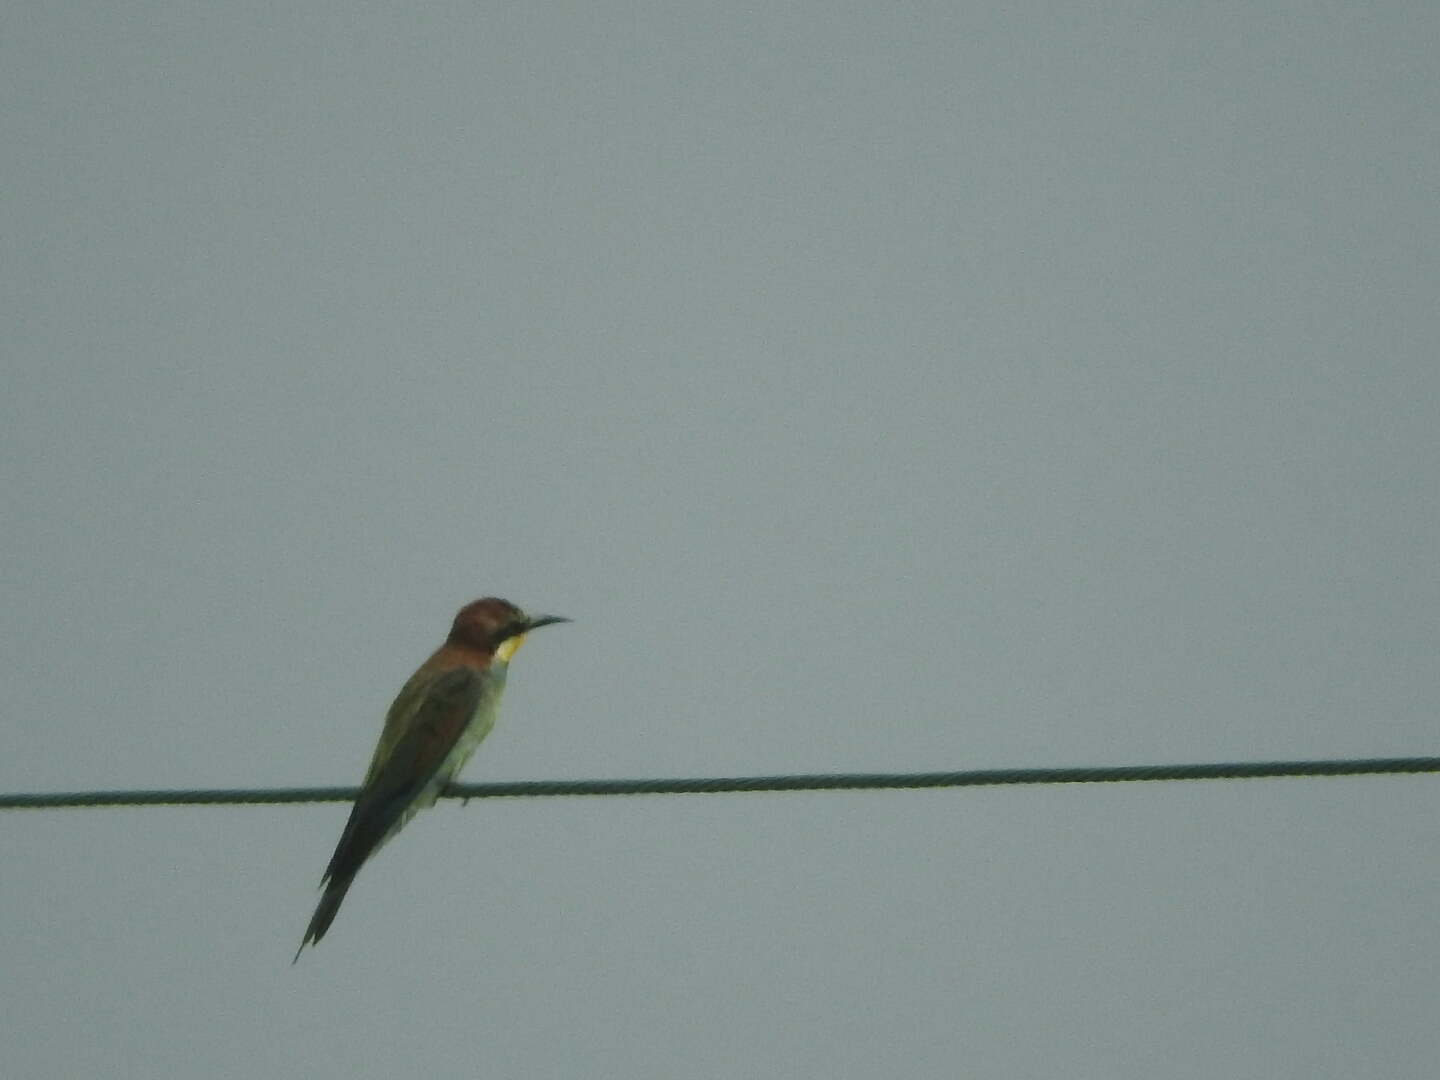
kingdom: Animalia
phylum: Chordata
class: Aves
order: Coraciiformes
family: Meropidae
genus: Merops
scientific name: Merops apiaster
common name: European bee-eater
